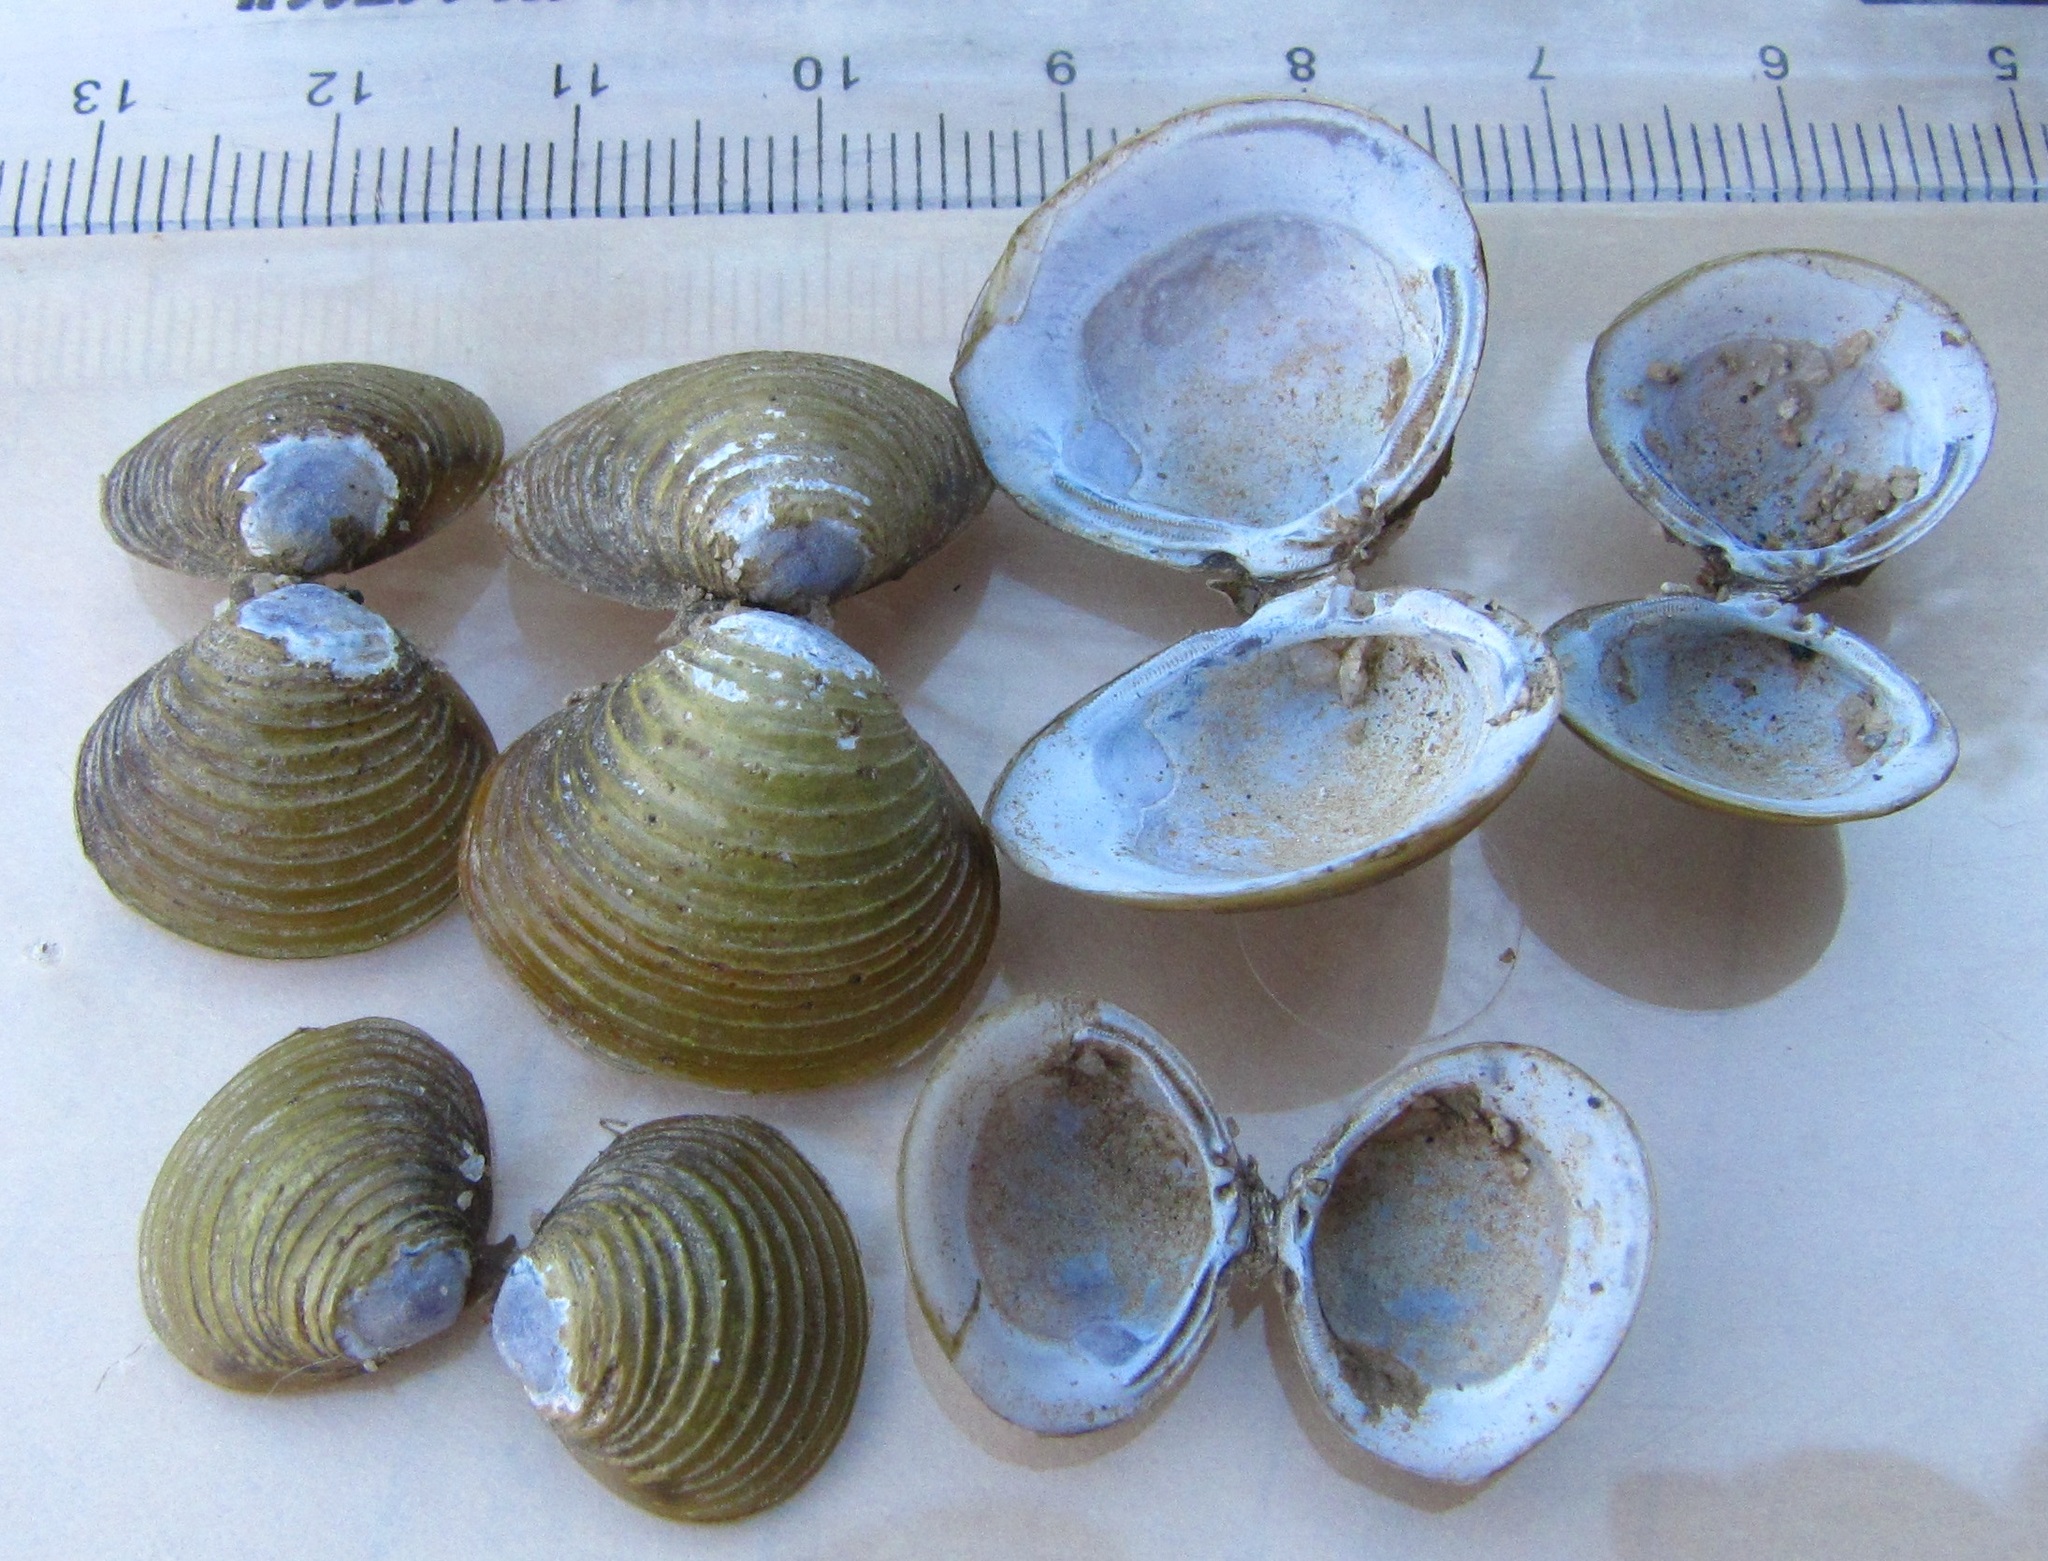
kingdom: Animalia
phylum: Mollusca
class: Bivalvia
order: Venerida
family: Cyrenidae
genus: Corbicula
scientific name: Corbicula fluminea
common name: Asian clam
